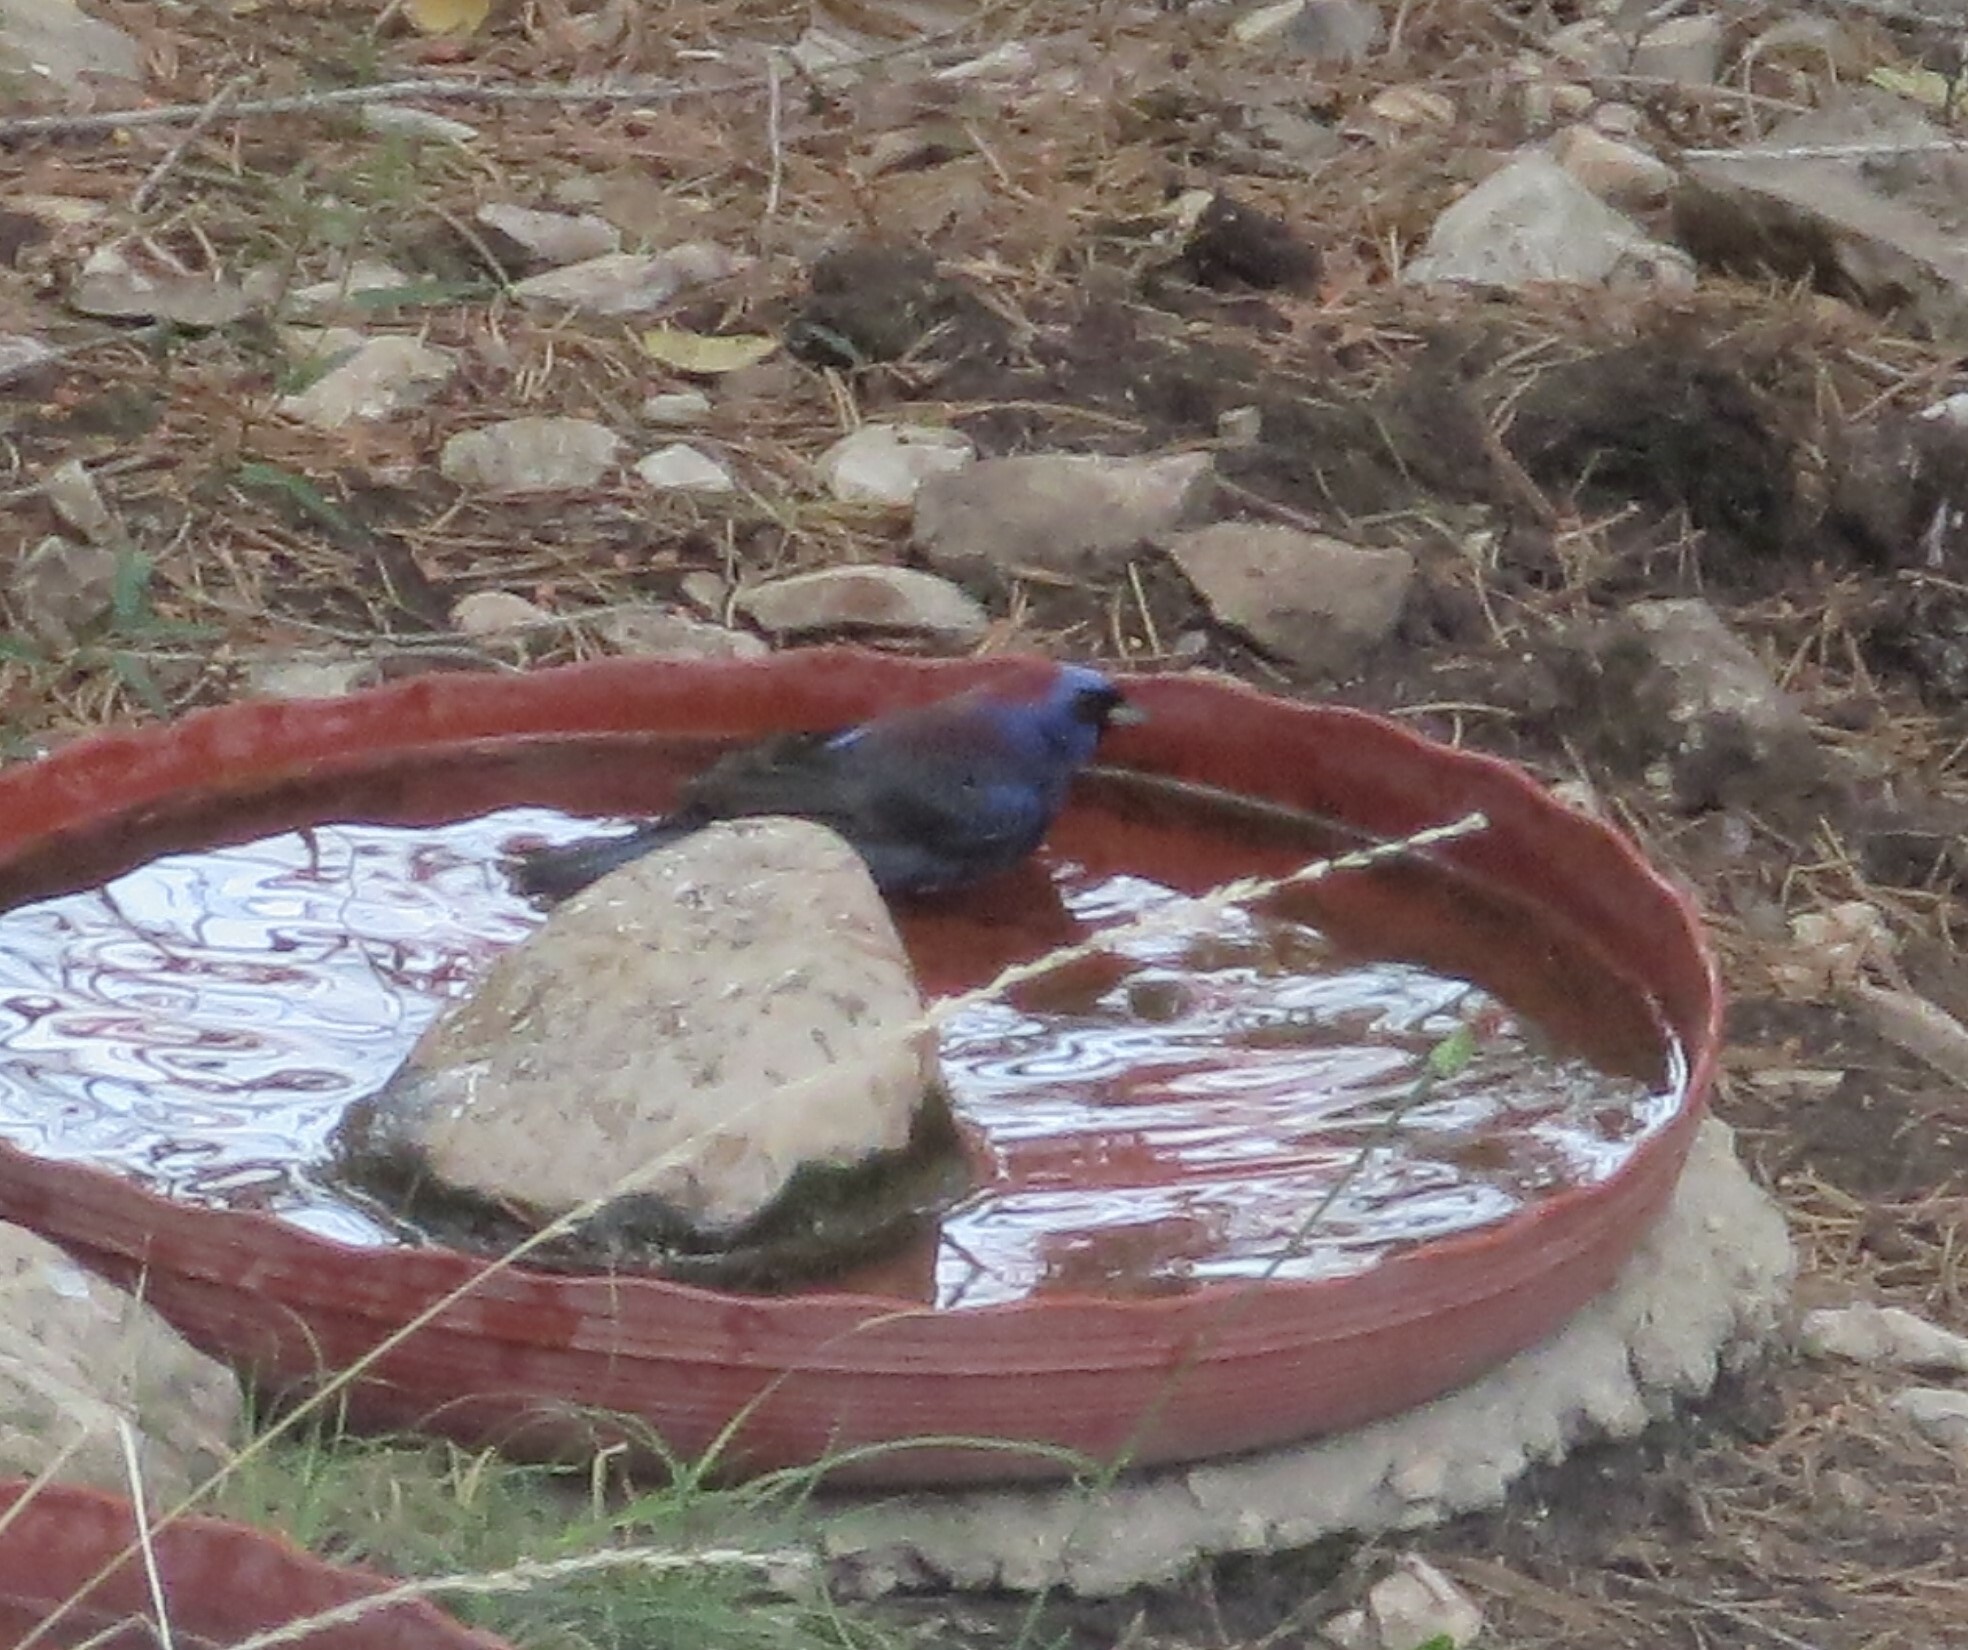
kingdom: Animalia
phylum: Chordata
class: Aves
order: Passeriformes
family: Cardinalidae
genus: Passerina
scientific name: Passerina versicolor
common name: Varied bunting
